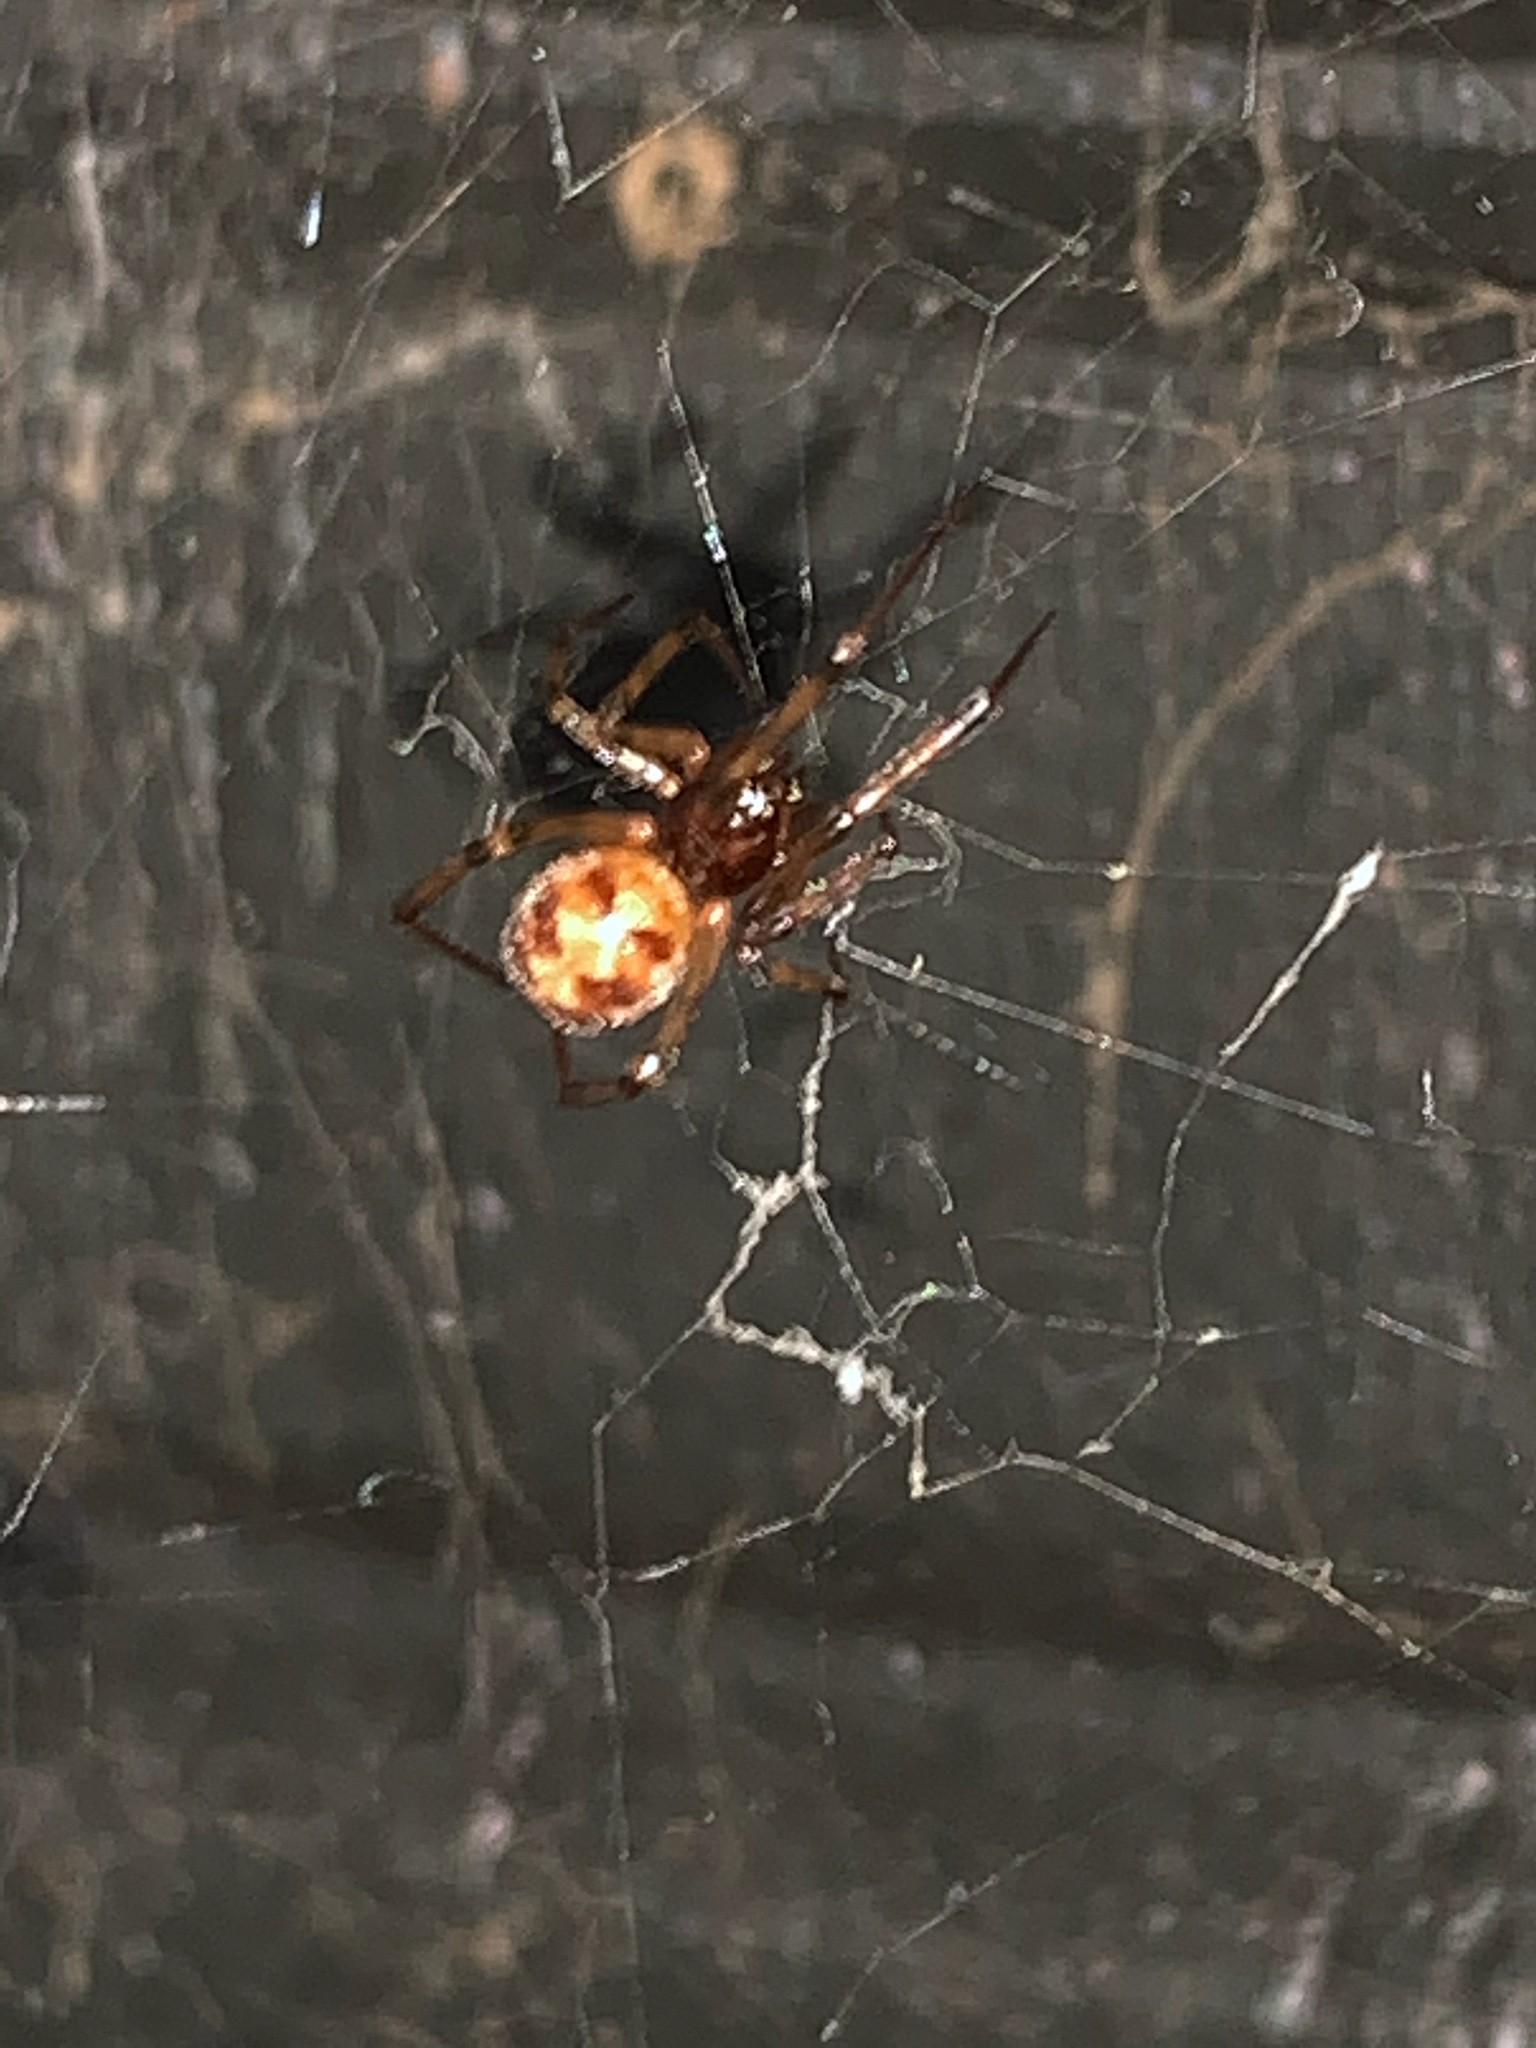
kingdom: Animalia
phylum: Arthropoda
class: Arachnida
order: Araneae
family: Theridiidae
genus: Steatoda
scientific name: Steatoda triangulosa
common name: Triangulate bud spider
